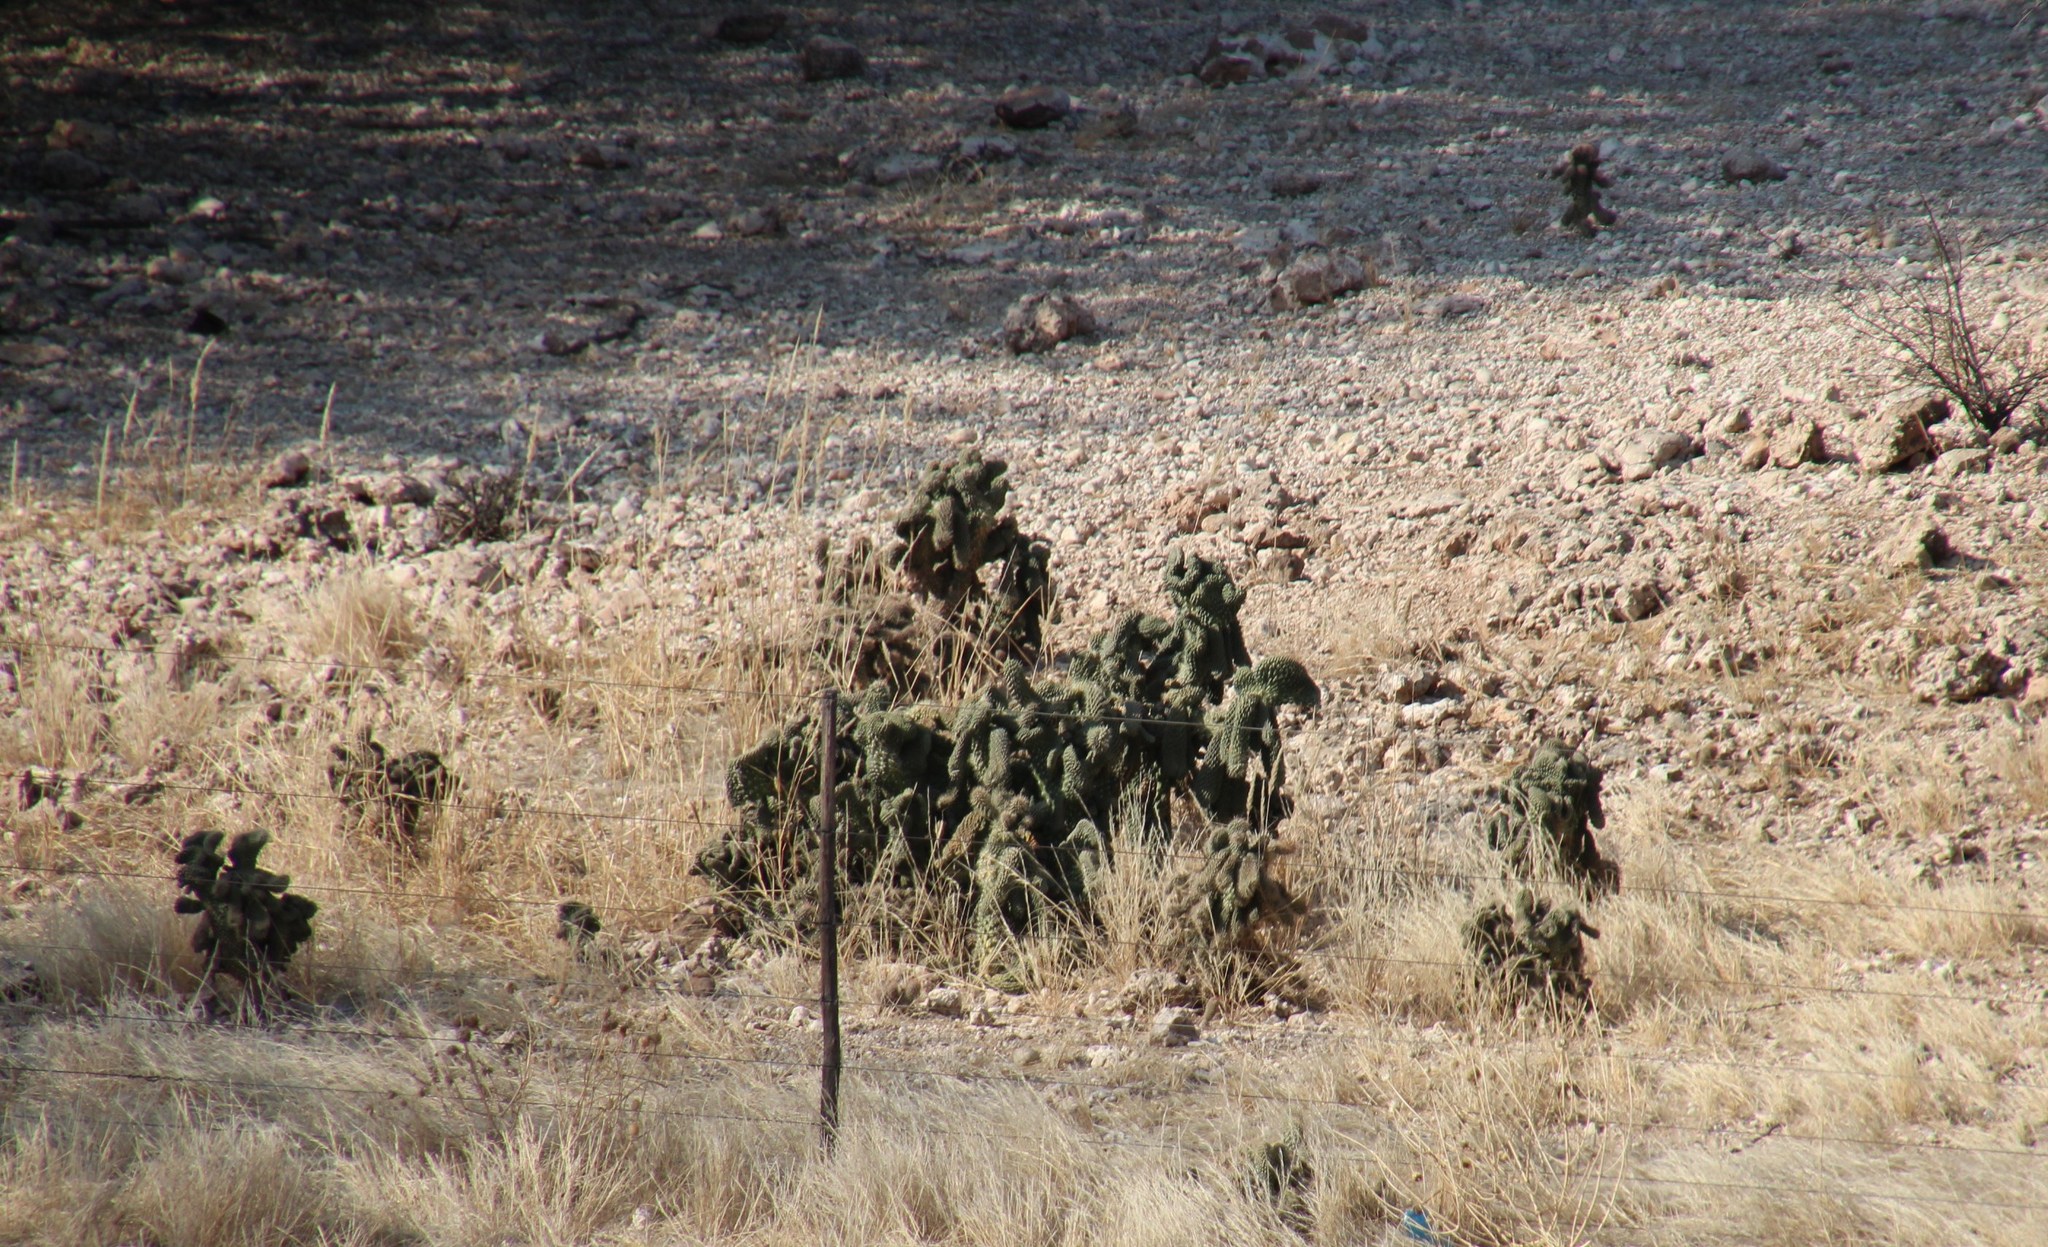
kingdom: Plantae
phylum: Tracheophyta
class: Magnoliopsida
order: Caryophyllales
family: Cactaceae
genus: Cylindropuntia
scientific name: Cylindropuntia fulgida
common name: Jumping cholla
